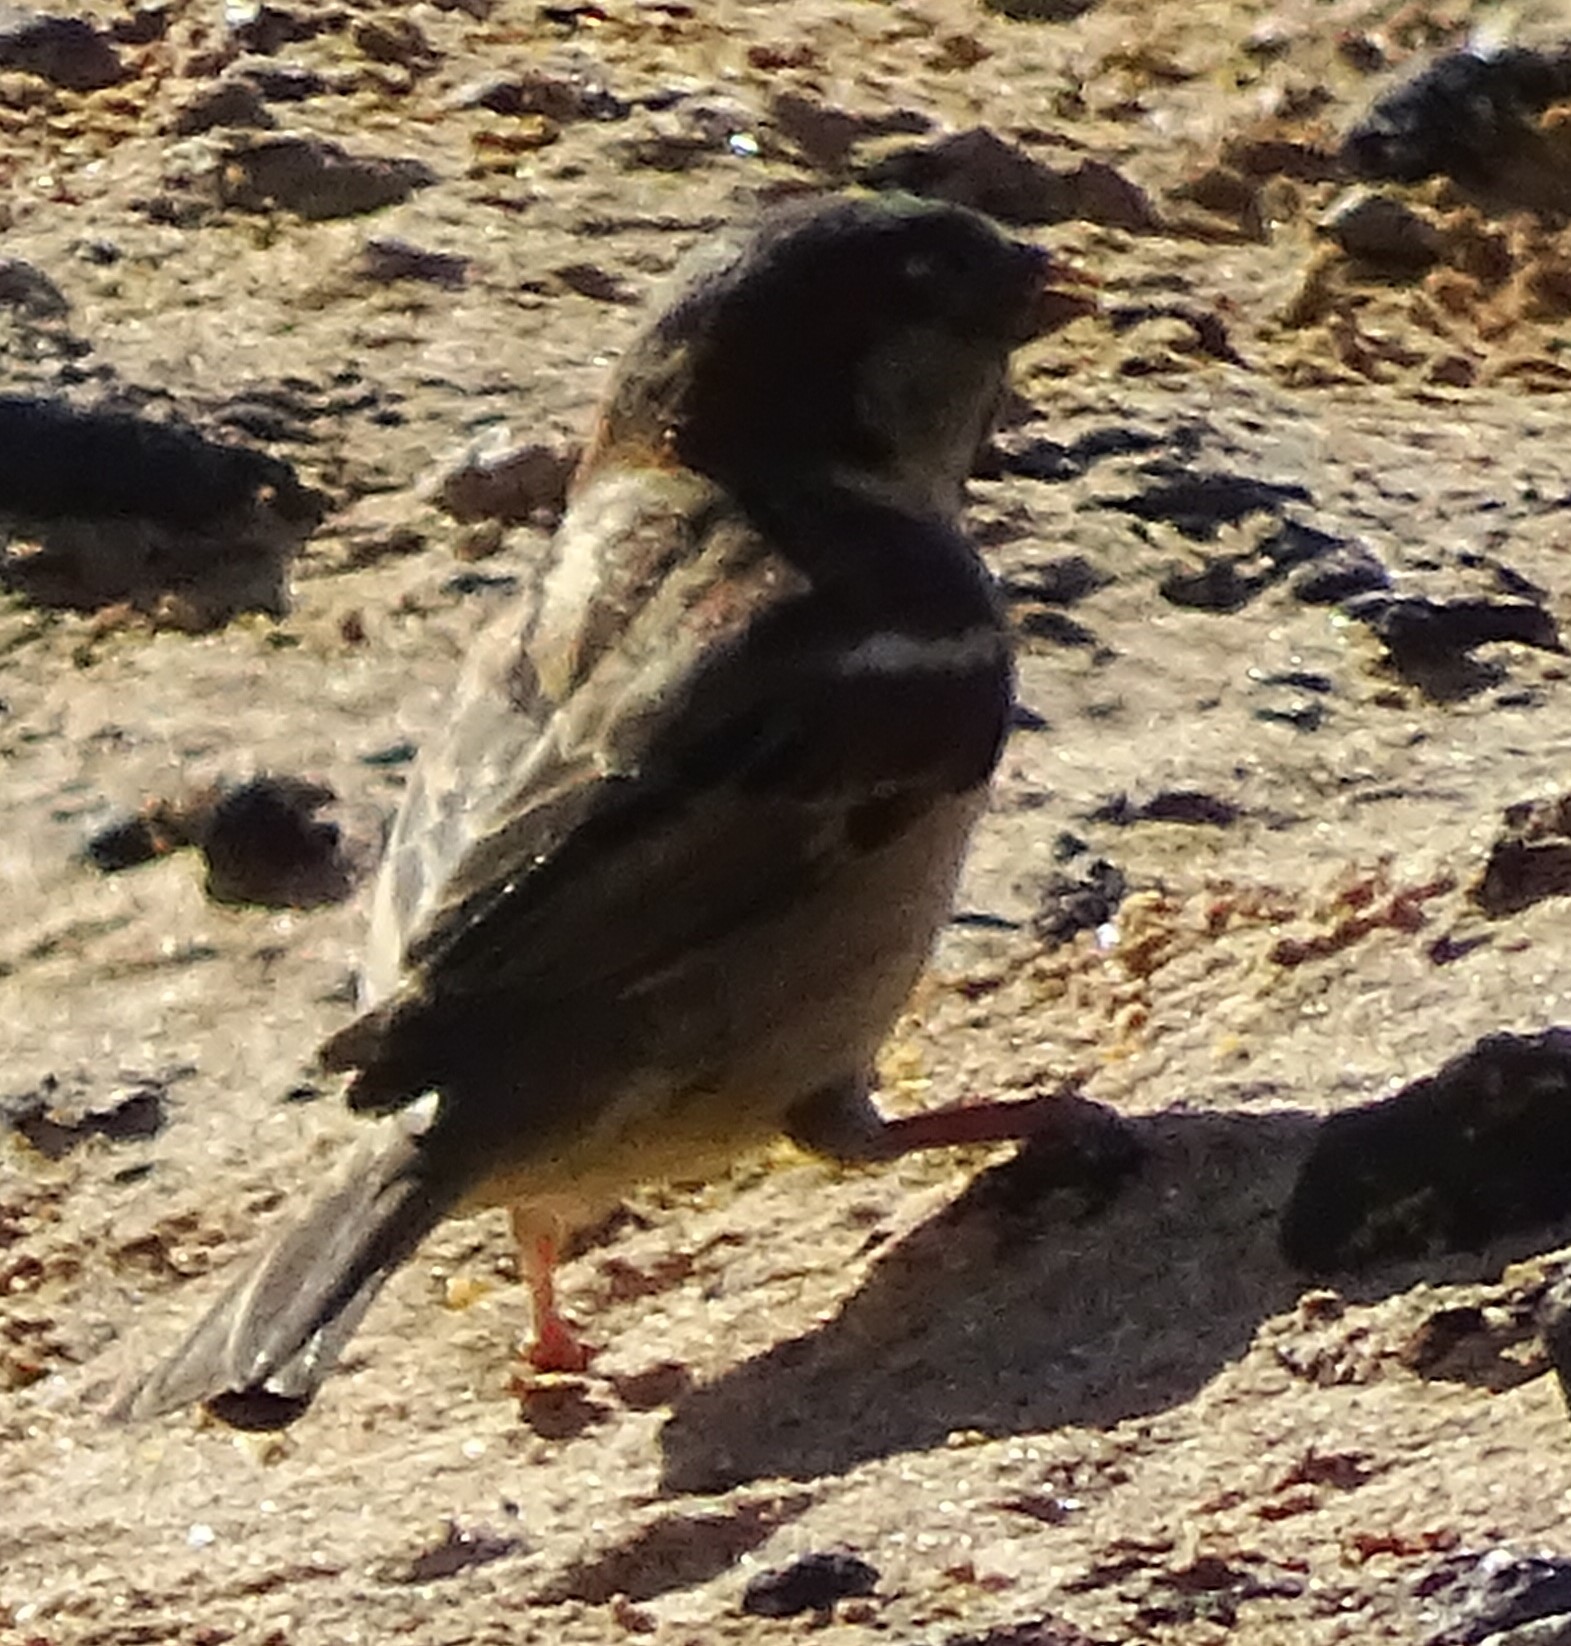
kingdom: Animalia
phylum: Chordata
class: Aves
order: Passeriformes
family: Passeridae
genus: Passer
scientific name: Passer domesticus
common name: House sparrow
